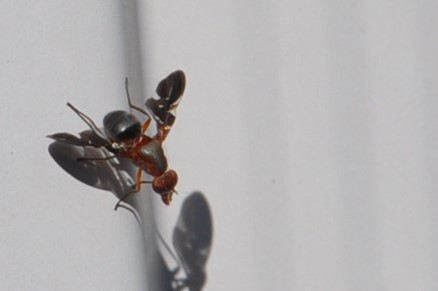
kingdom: Animalia
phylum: Arthropoda
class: Insecta
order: Diptera
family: Ulidiidae
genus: Delphinia
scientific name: Delphinia picta
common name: Common picture-winged fly
